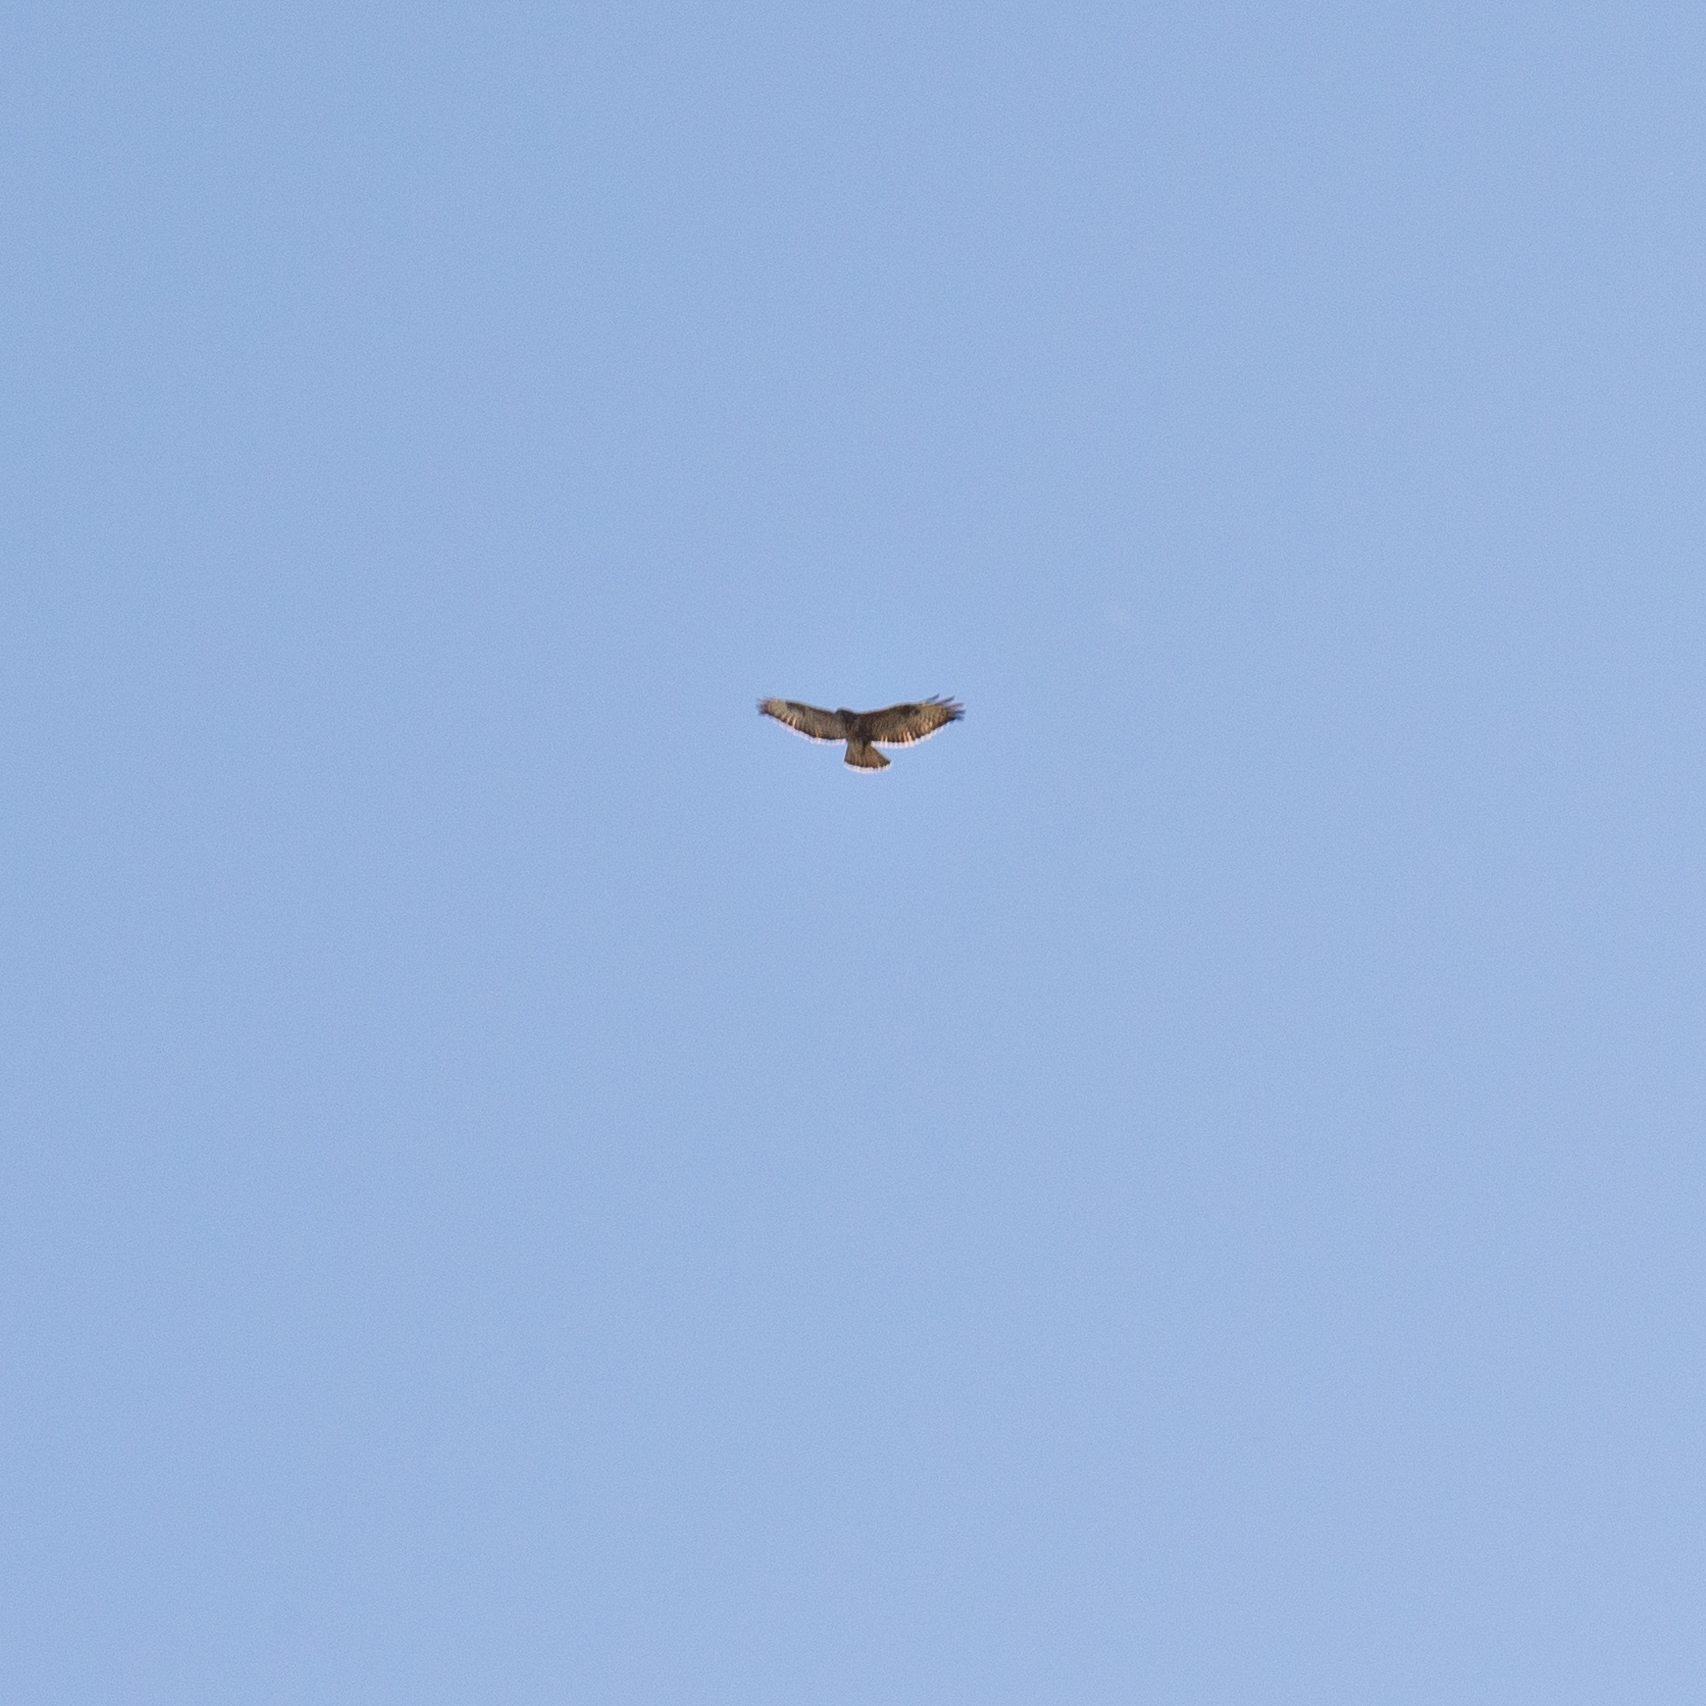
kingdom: Animalia
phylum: Chordata
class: Aves
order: Accipitriformes
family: Accipitridae
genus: Buteo
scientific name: Buteo buteo
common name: Common buzzard
